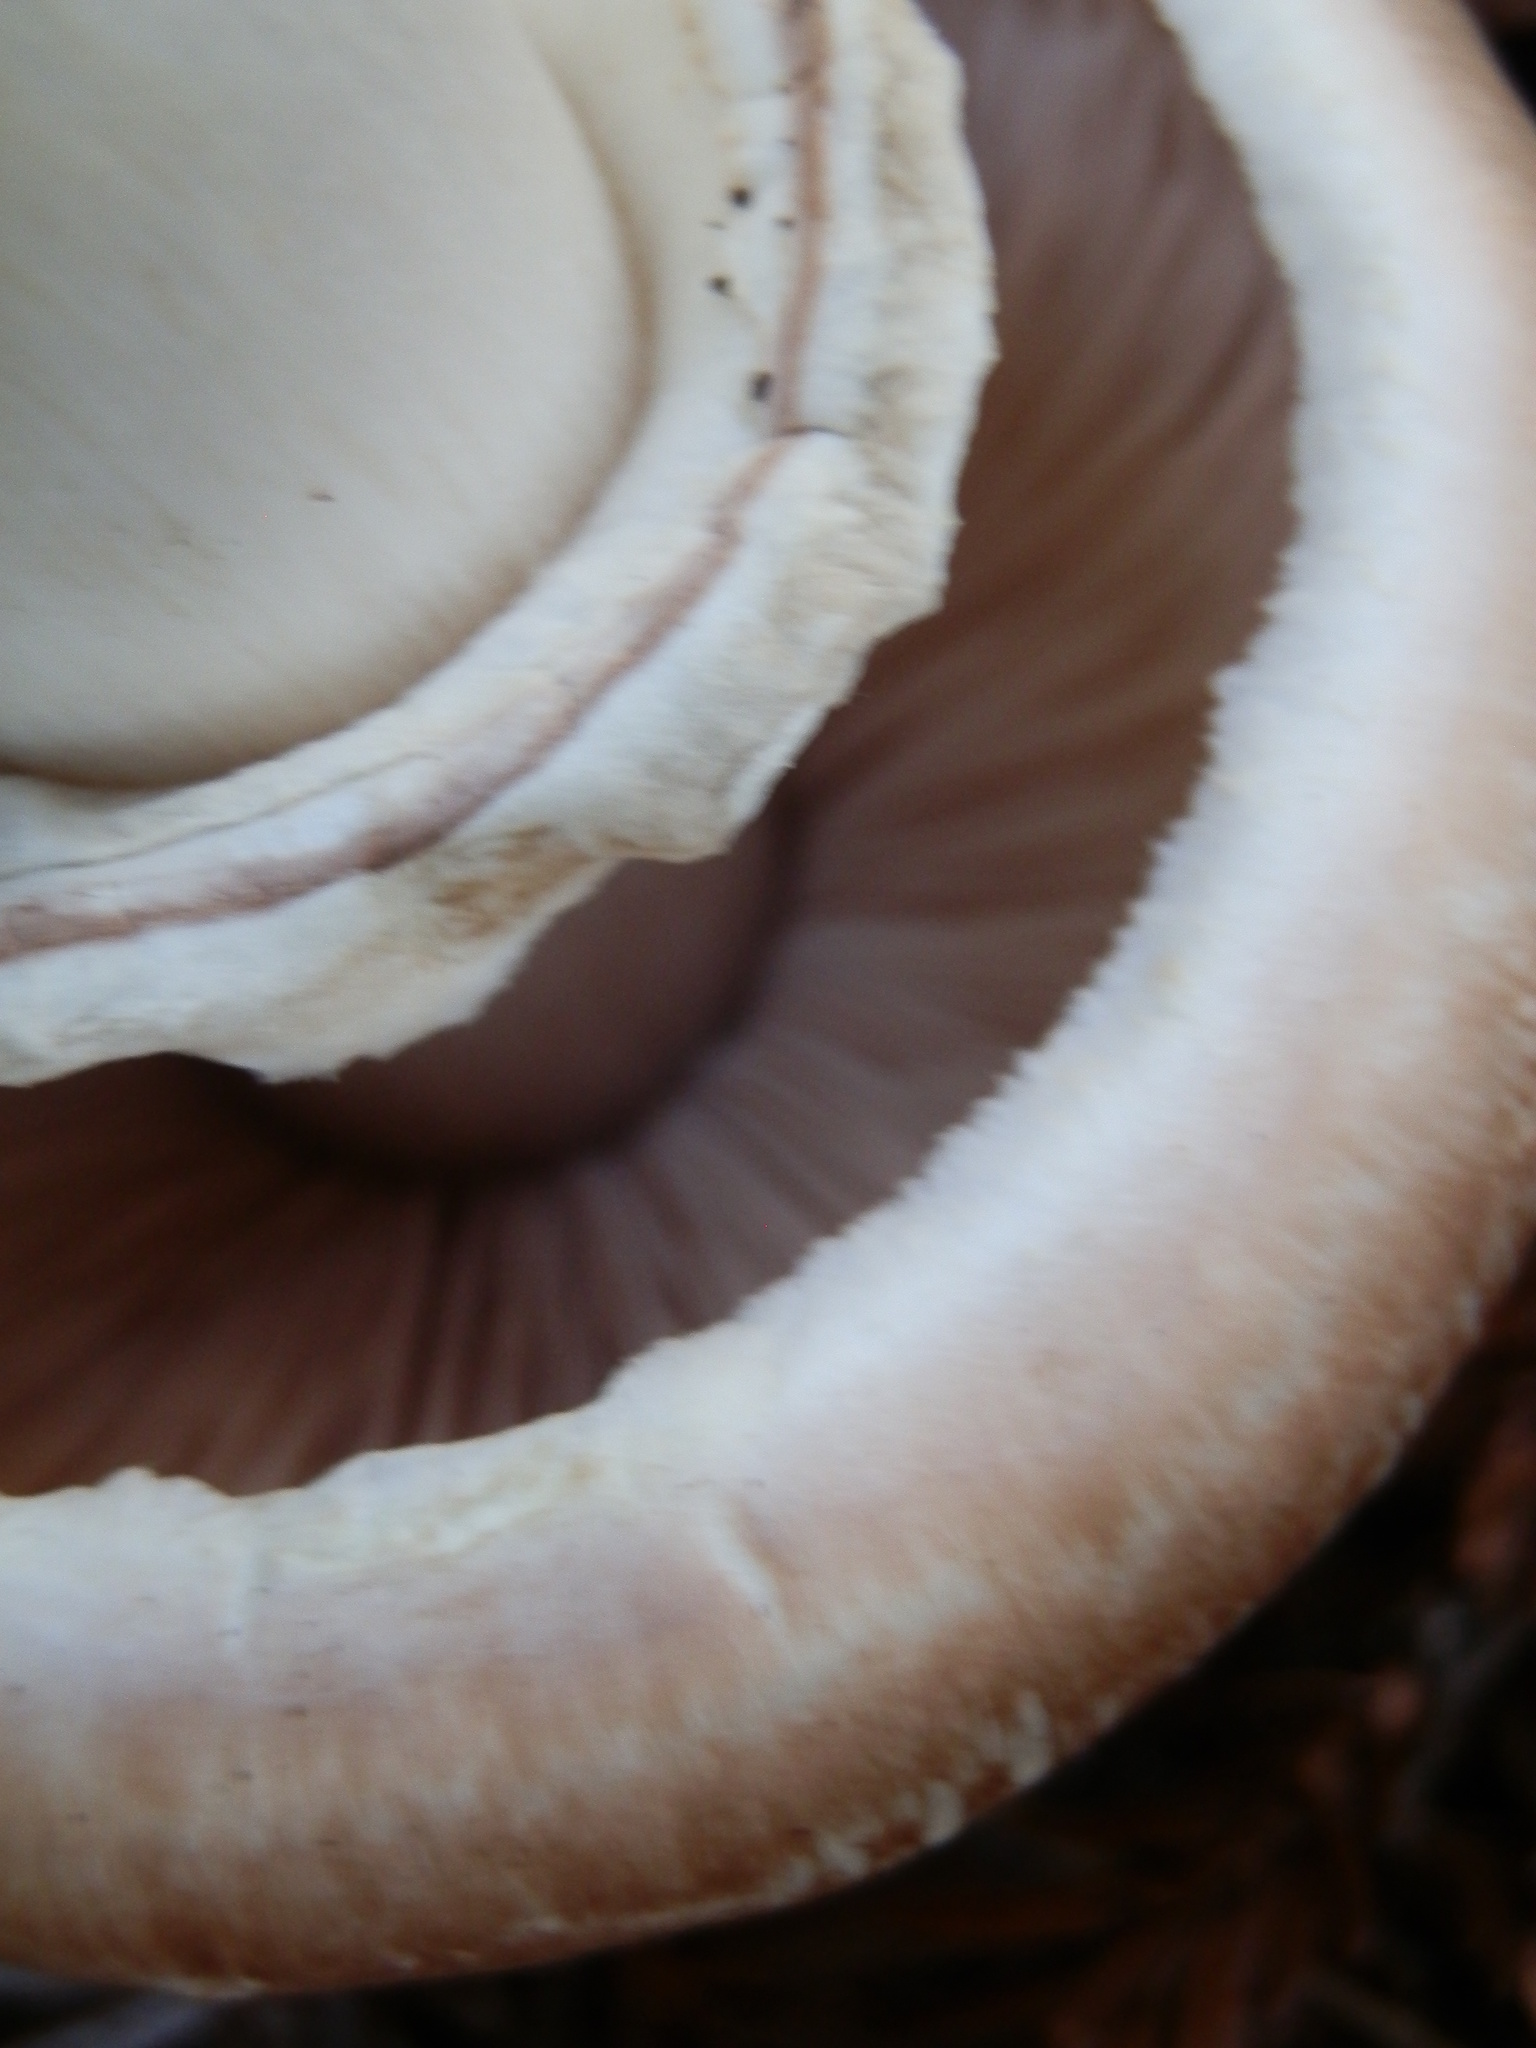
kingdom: Fungi
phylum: Basidiomycota
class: Agaricomycetes
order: Agaricales
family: Agaricaceae
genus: Agaricus
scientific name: Agaricus hondensis
